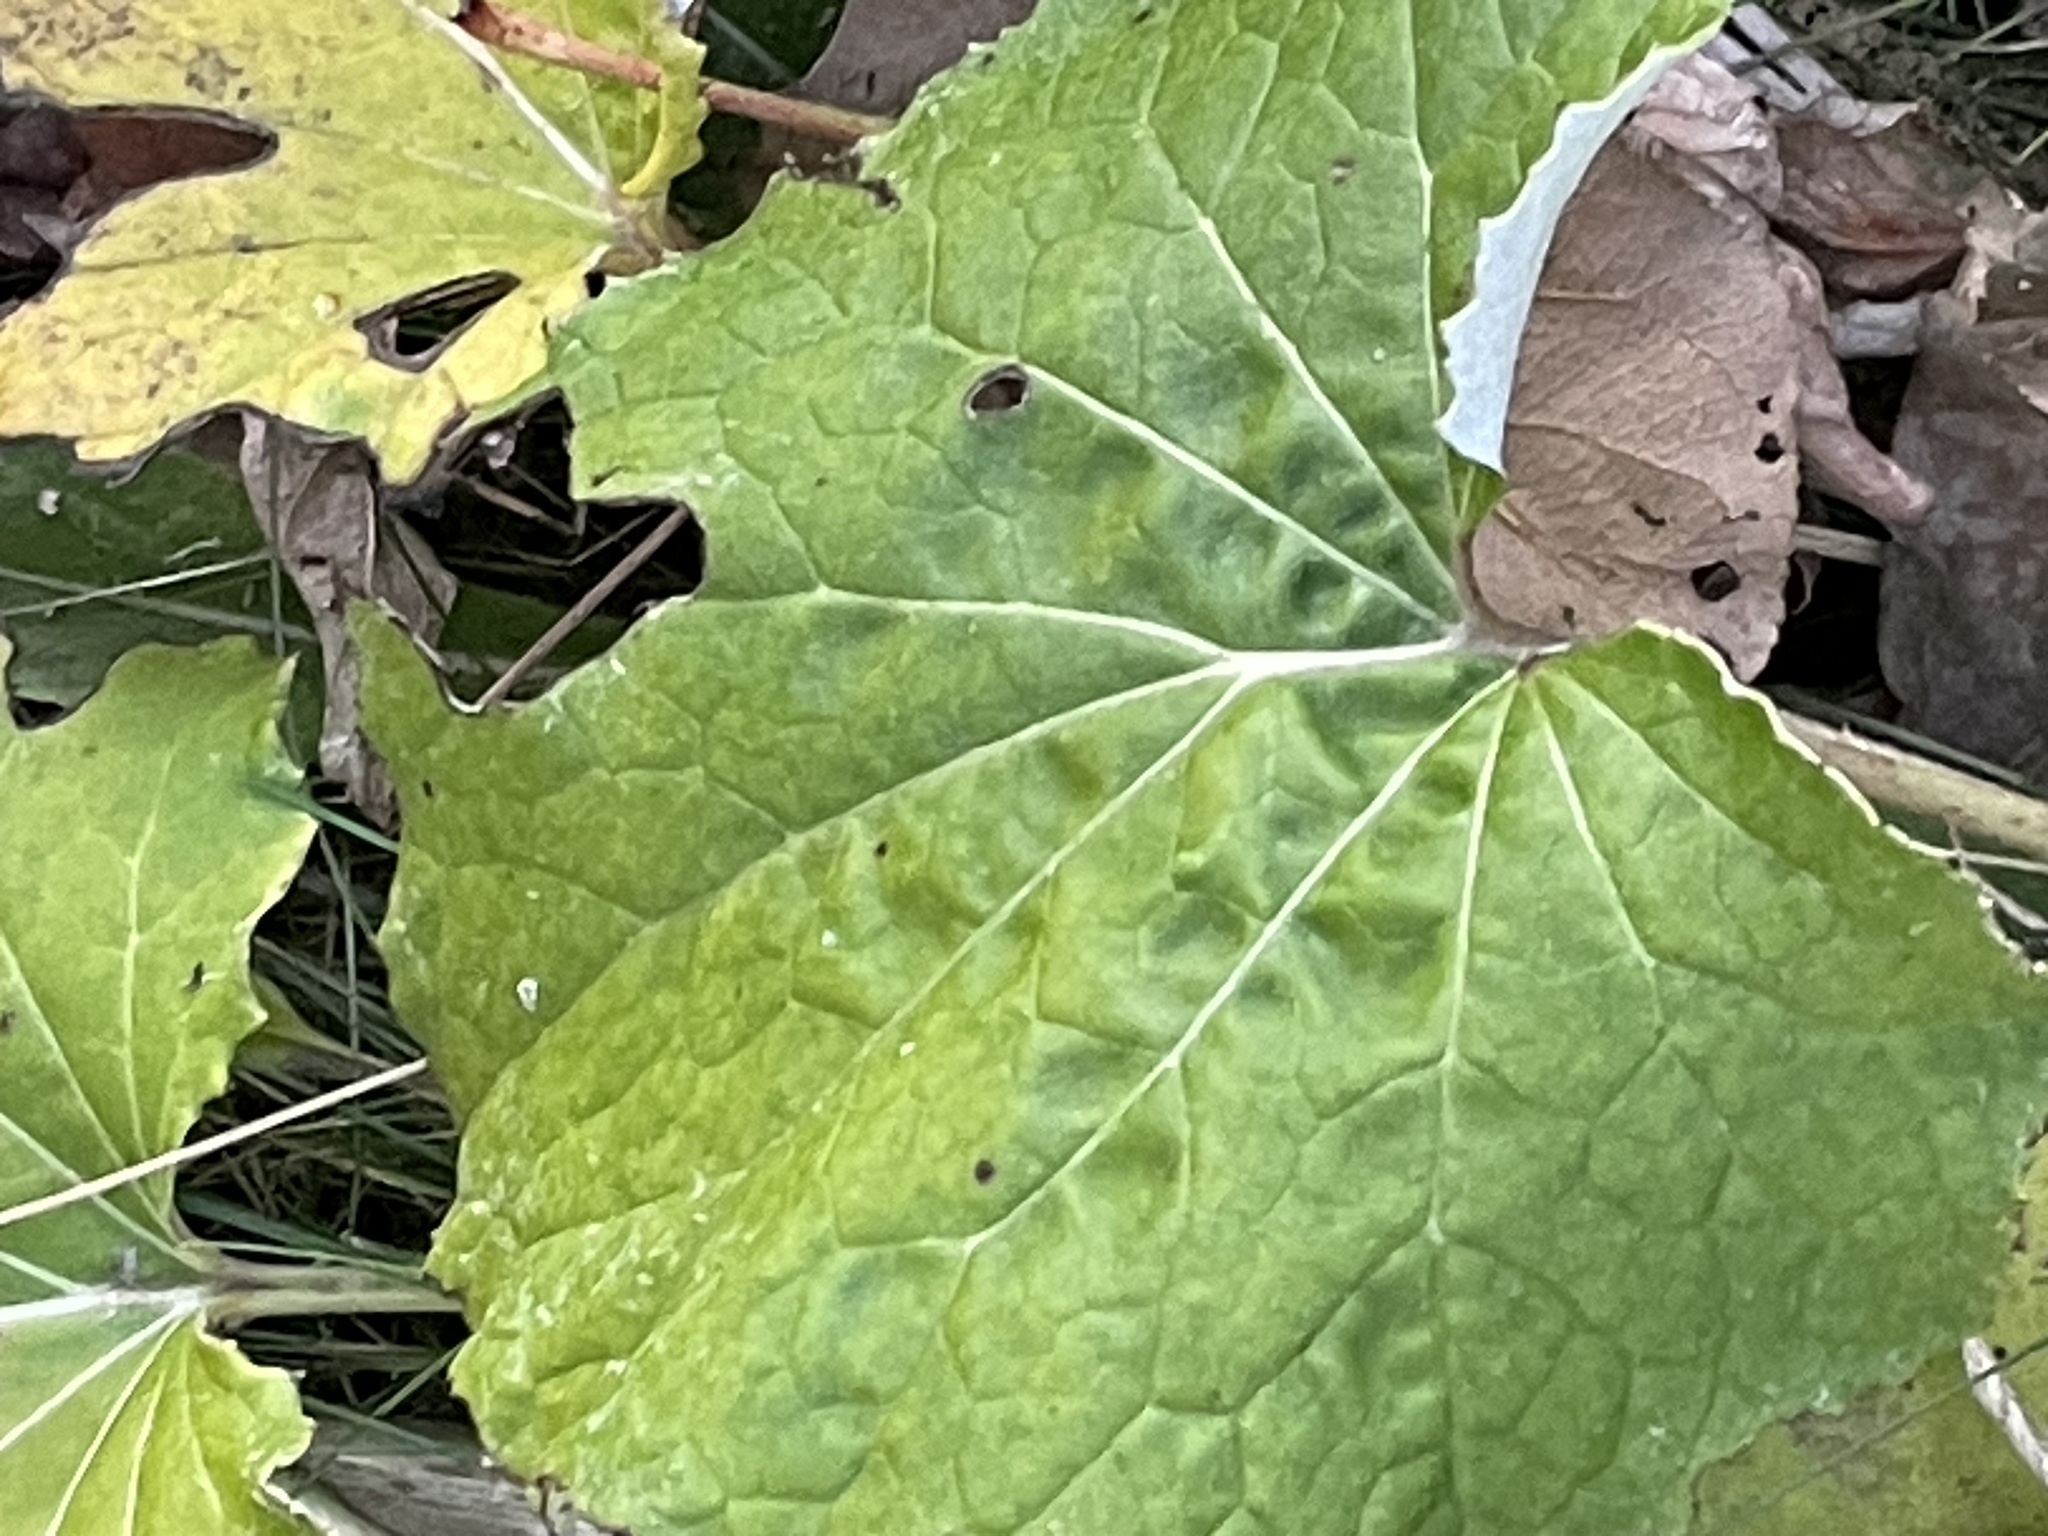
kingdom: Plantae
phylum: Tracheophyta
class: Magnoliopsida
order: Asterales
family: Asteraceae
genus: Tussilago
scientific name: Tussilago farfara
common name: Coltsfoot
